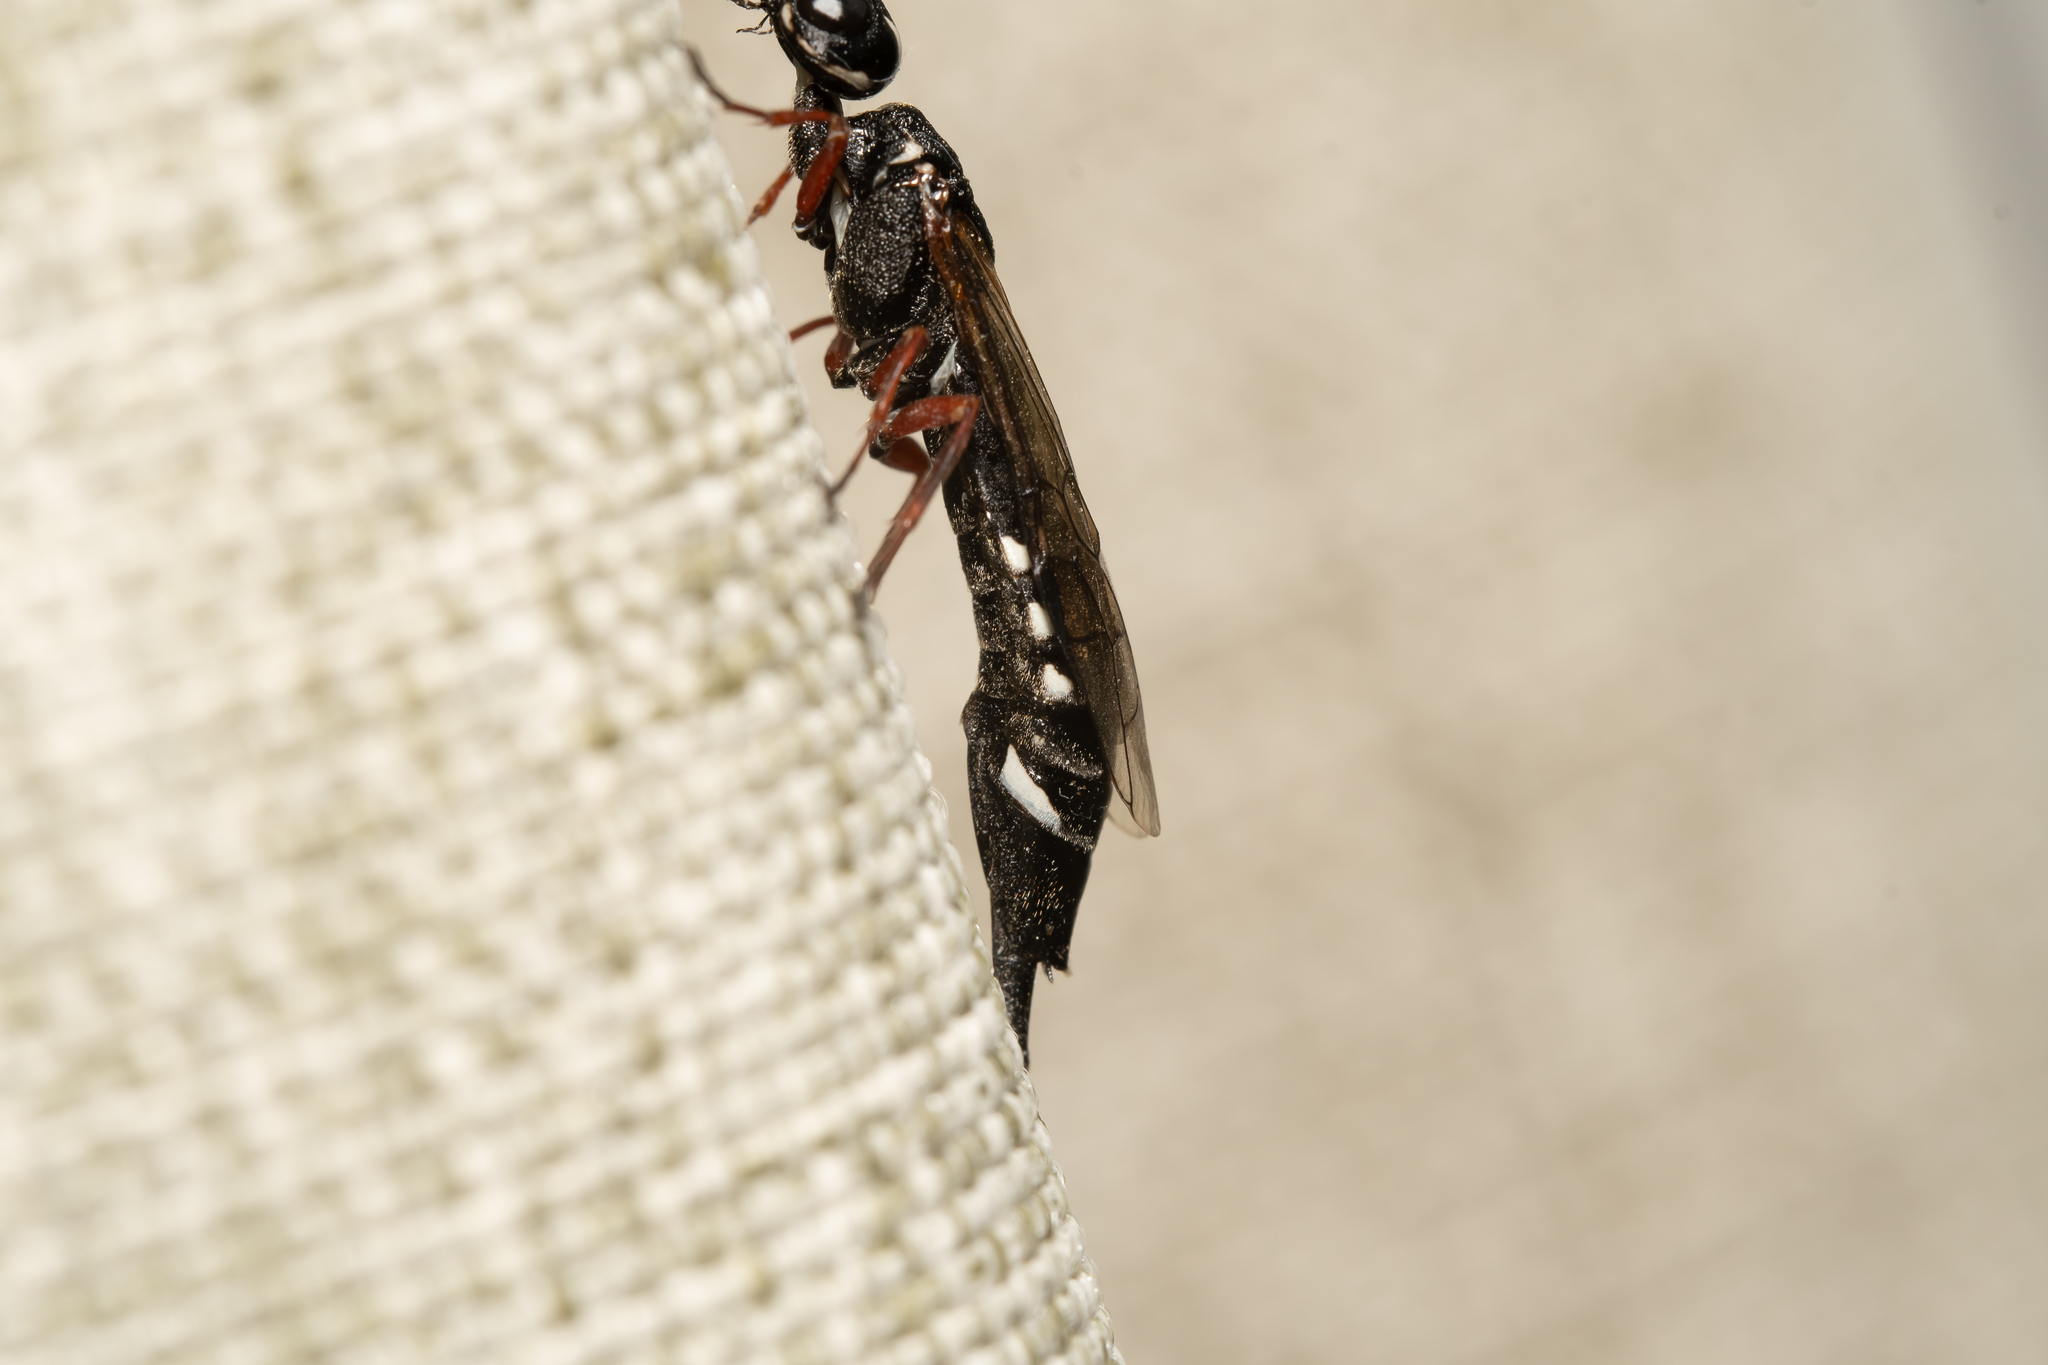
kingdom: Animalia
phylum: Arthropoda
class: Insecta
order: Hymenoptera
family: Xiphydriidae
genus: Xiphydria
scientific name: Xiphydria camelus
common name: Alder wood-wasp
